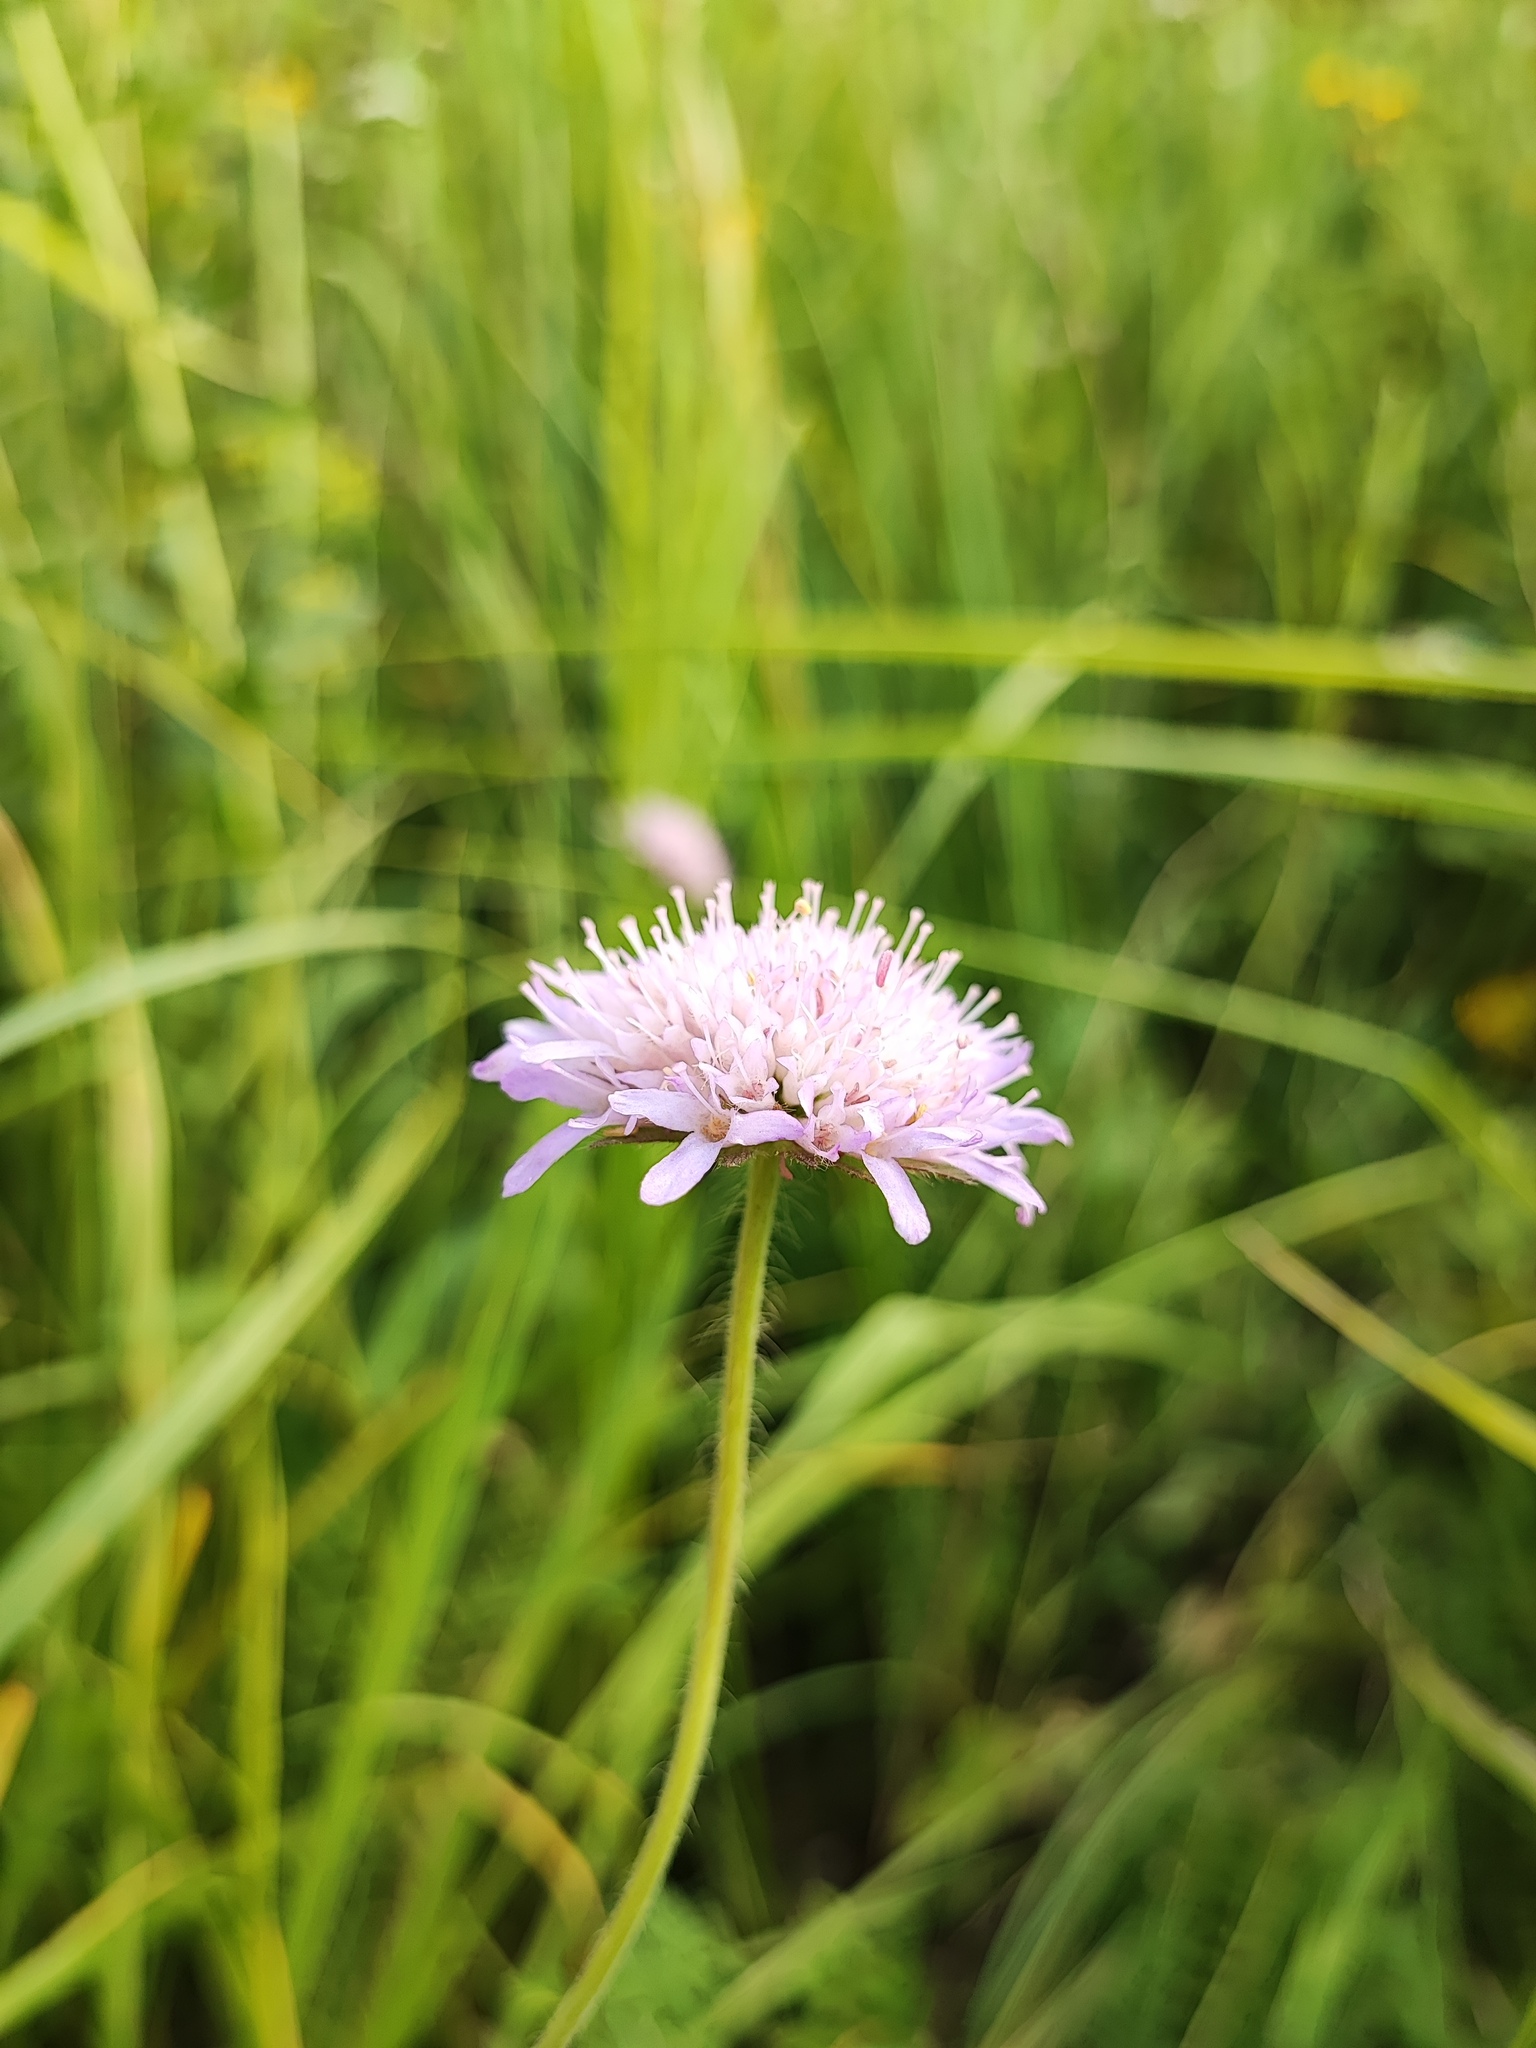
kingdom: Plantae
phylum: Tracheophyta
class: Magnoliopsida
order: Dipsacales
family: Caprifoliaceae
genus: Knautia
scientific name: Knautia arvensis
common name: Field scabiosa
